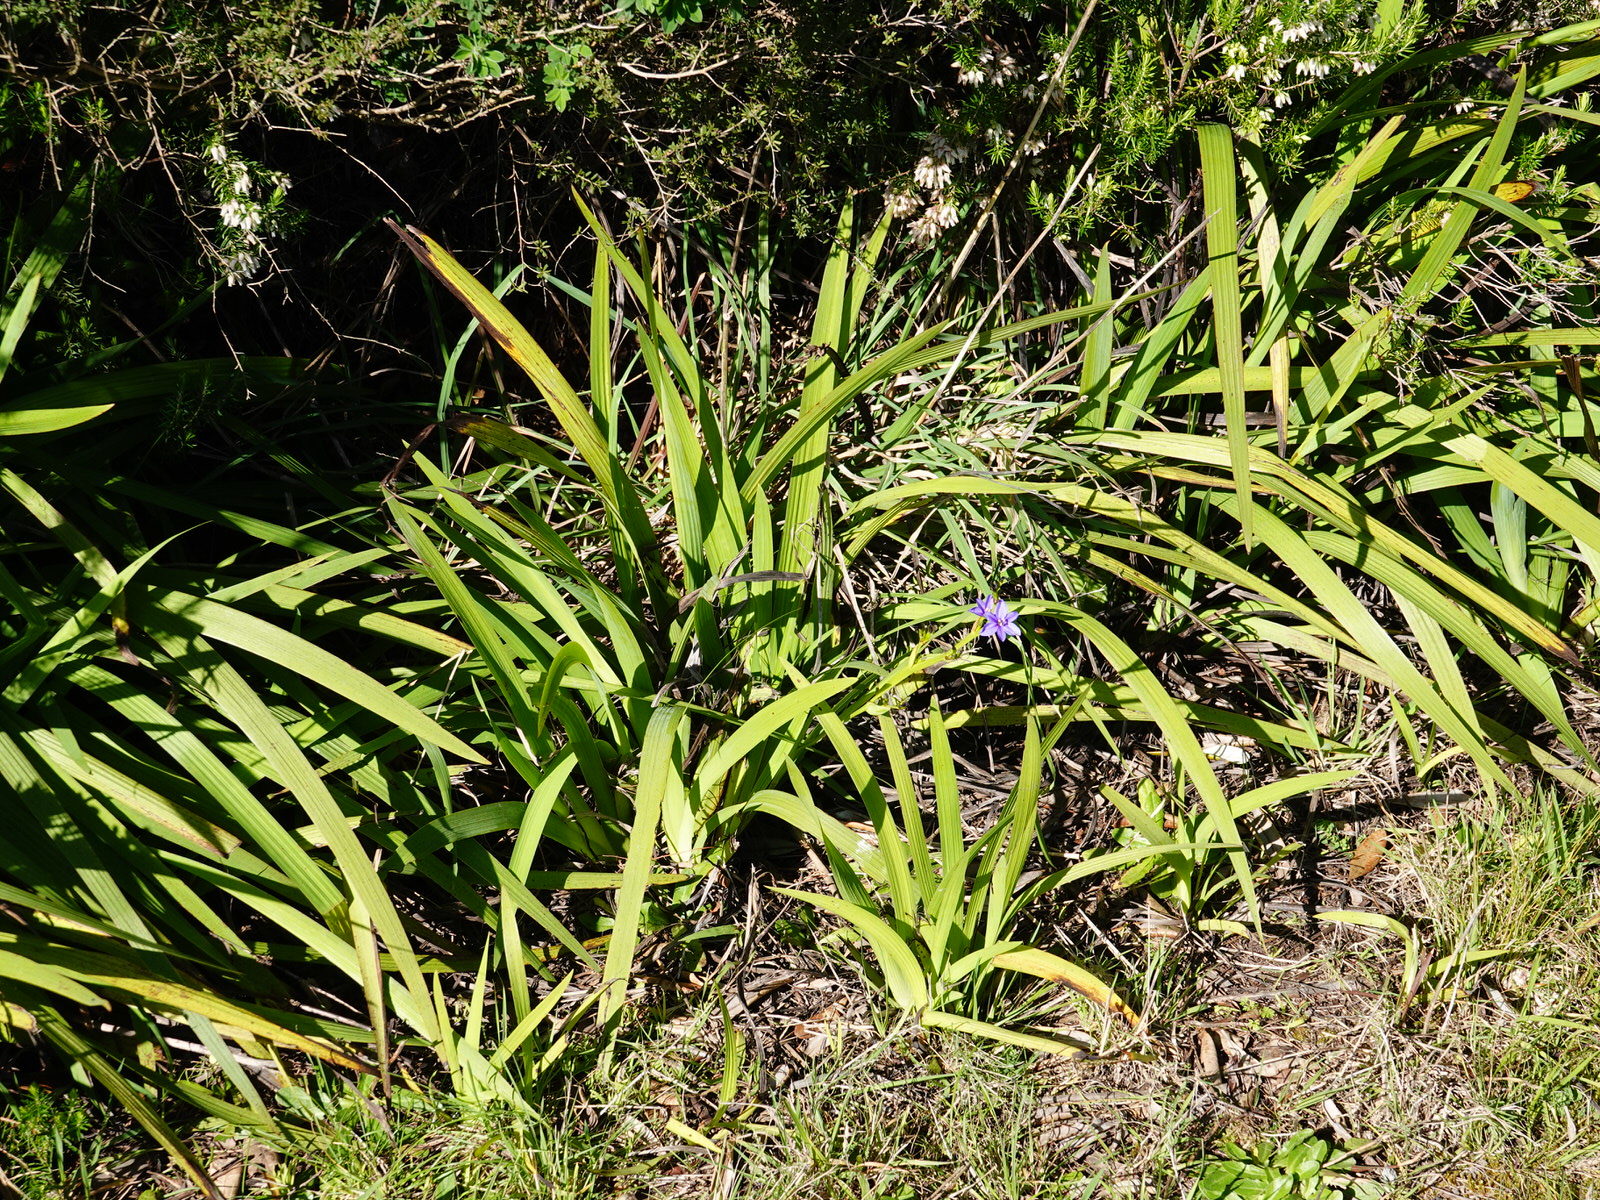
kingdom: Plantae
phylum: Tracheophyta
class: Liliopsida
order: Asparagales
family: Iridaceae
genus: Aristea
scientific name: Aristea ecklonii
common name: Blue corn-lily
